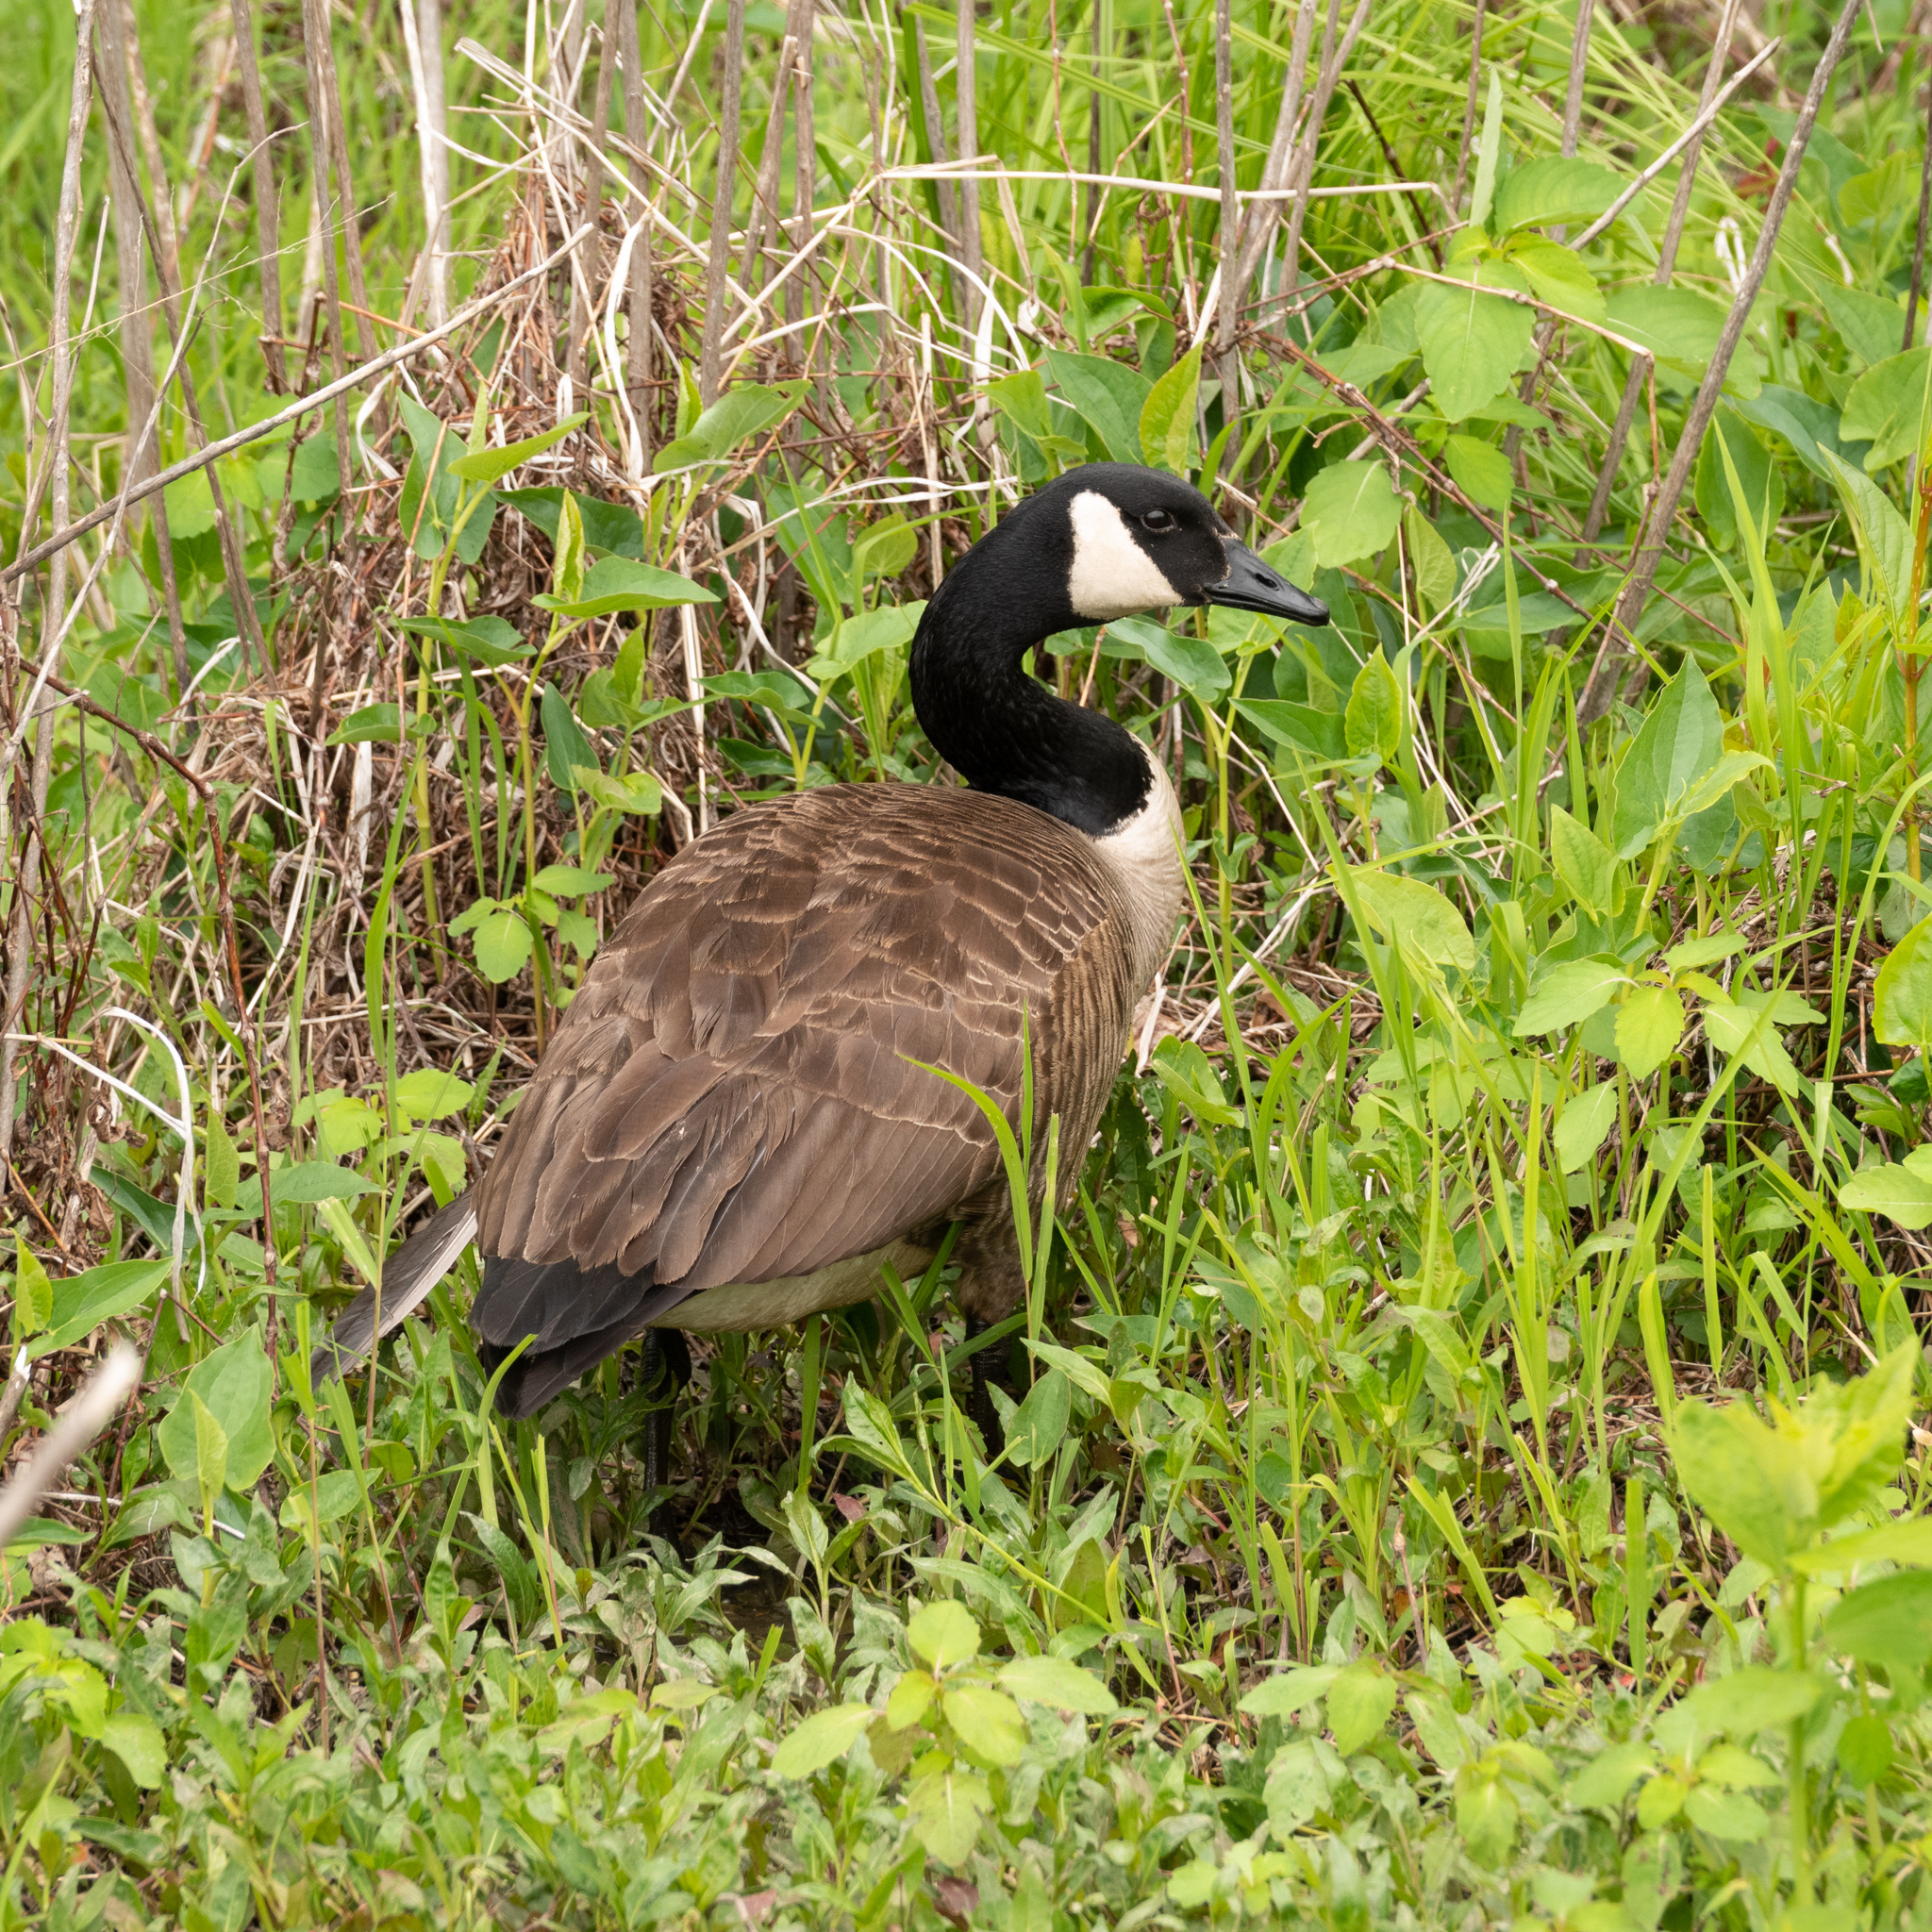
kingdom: Animalia
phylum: Chordata
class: Aves
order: Anseriformes
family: Anatidae
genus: Branta
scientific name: Branta canadensis
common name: Canada goose
